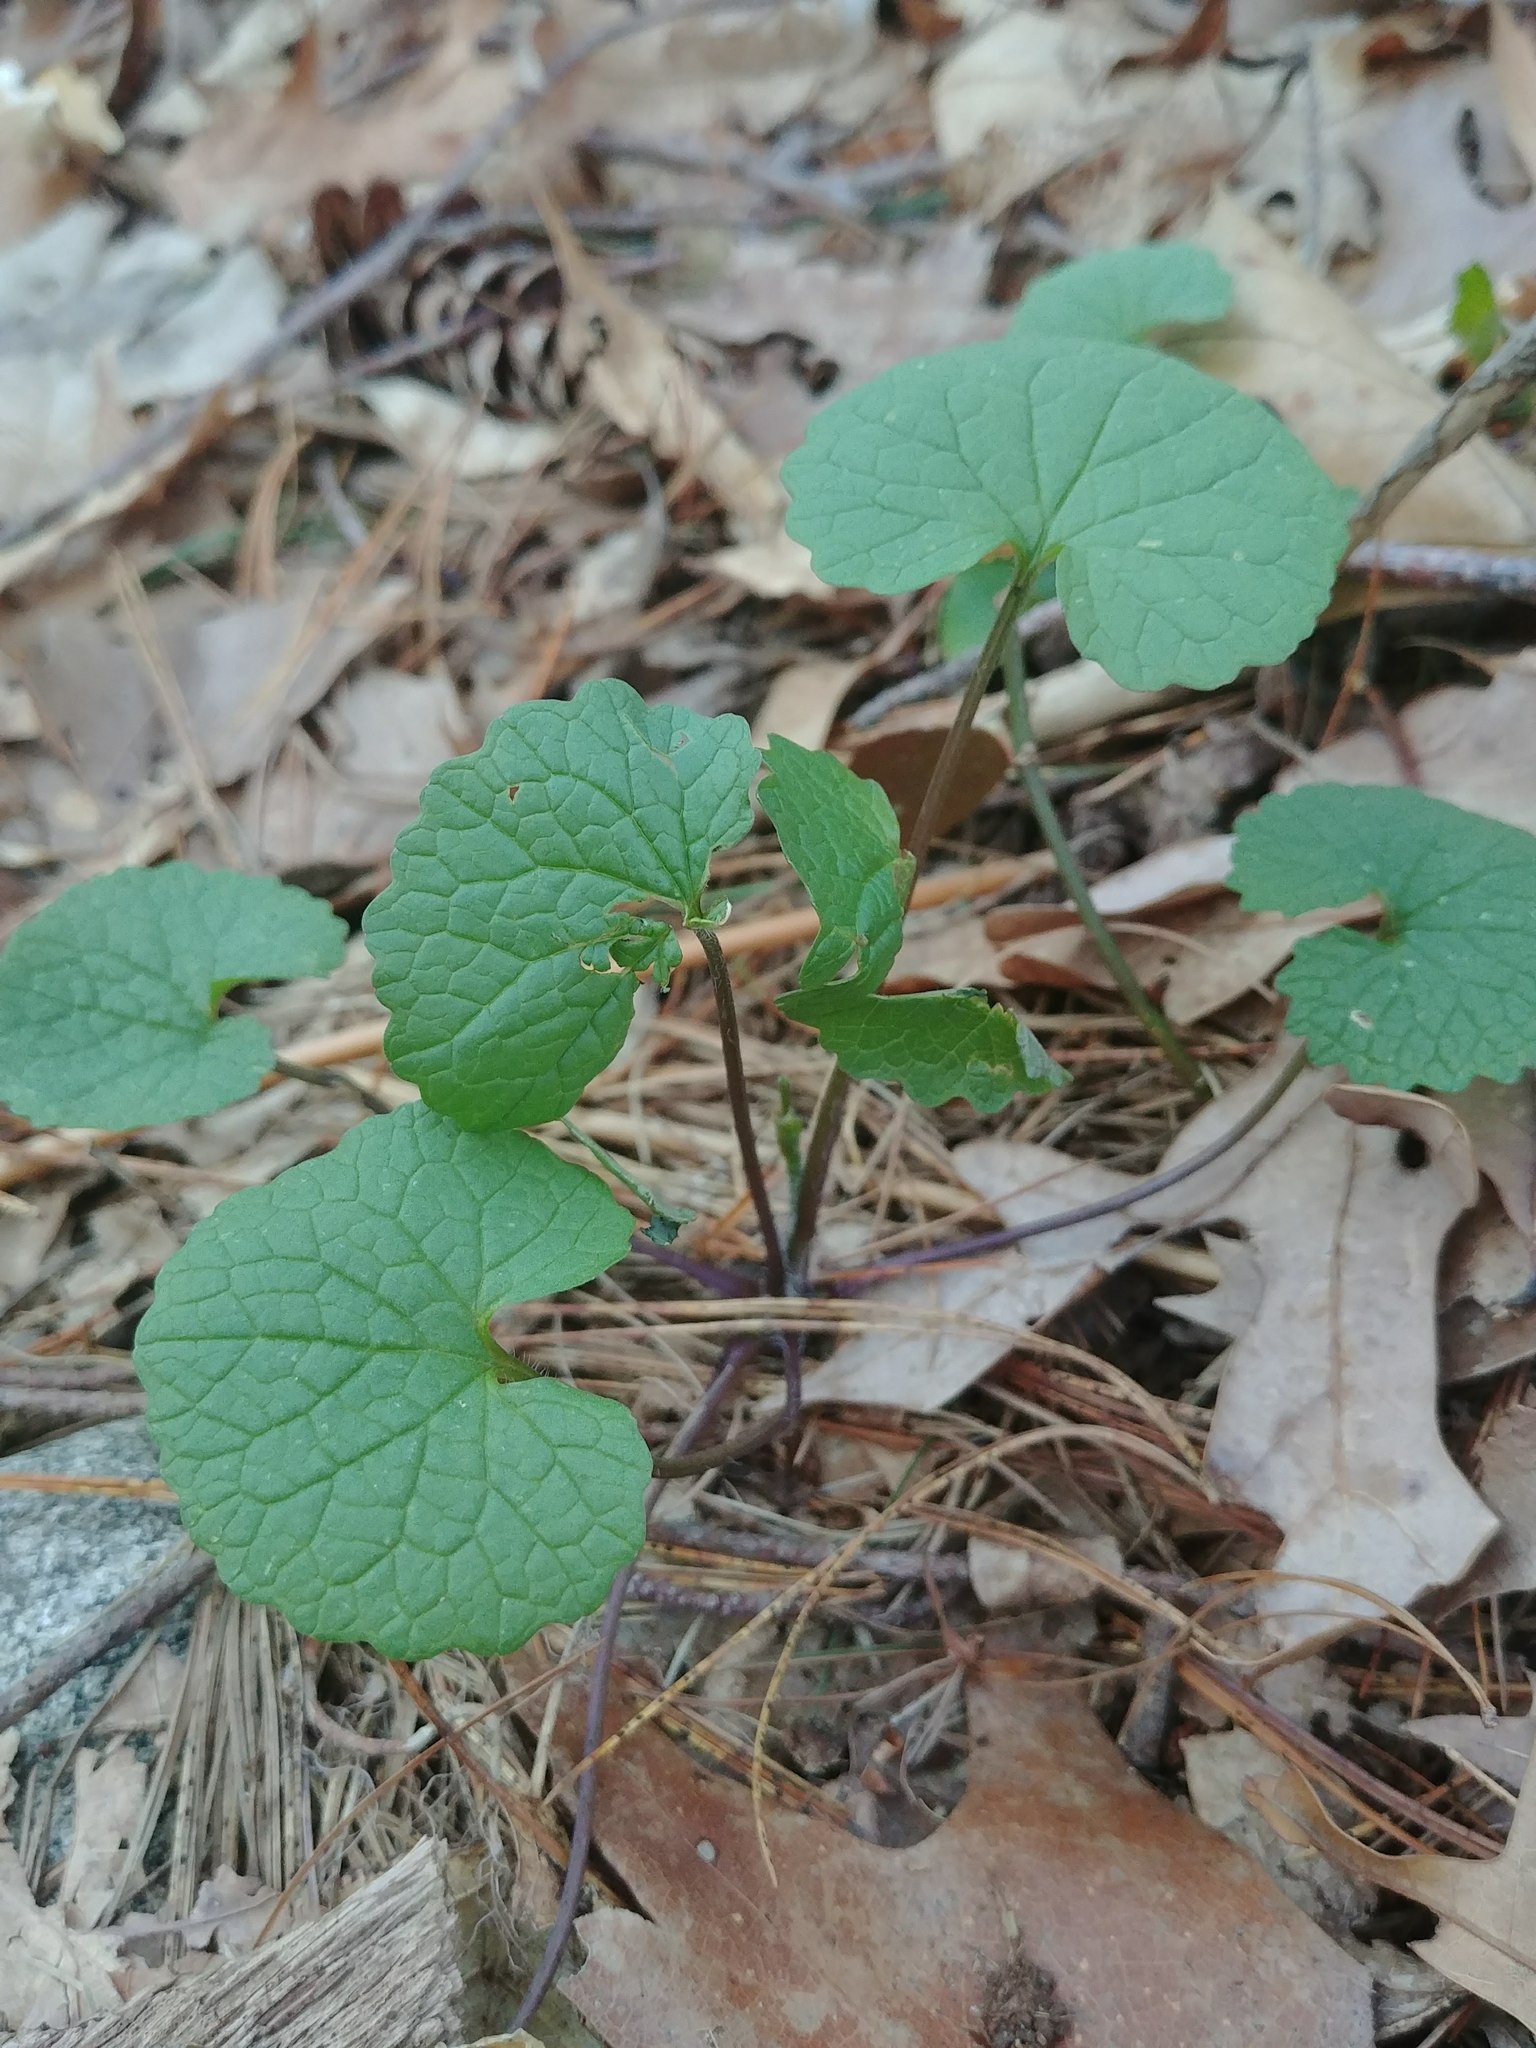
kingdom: Plantae
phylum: Tracheophyta
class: Magnoliopsida
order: Brassicales
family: Brassicaceae
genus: Alliaria
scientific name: Alliaria petiolata
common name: Garlic mustard
